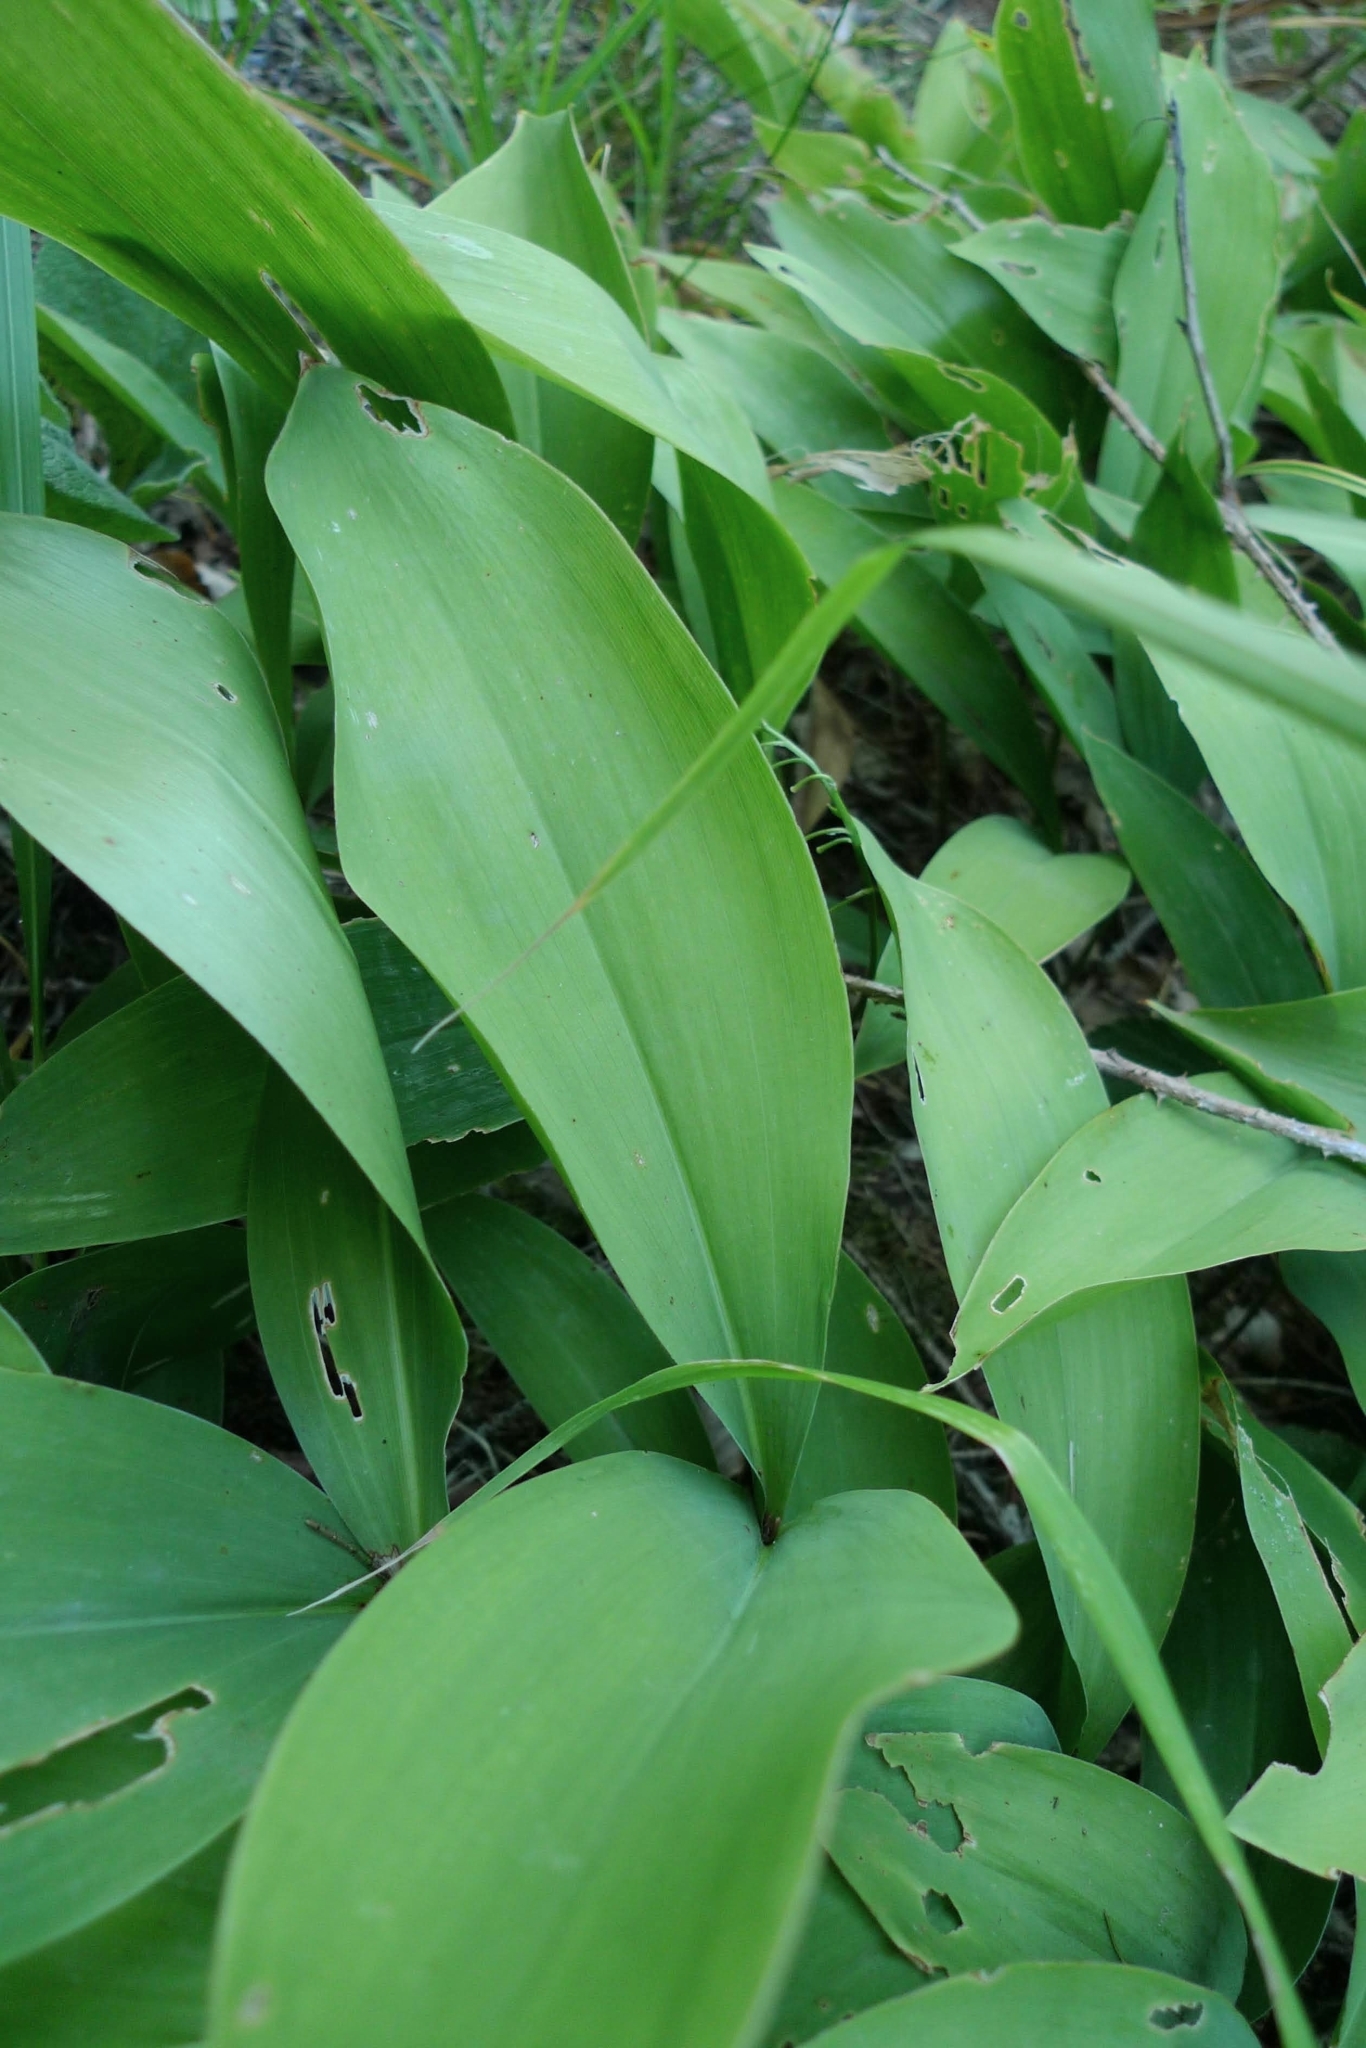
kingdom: Plantae
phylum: Tracheophyta
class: Liliopsida
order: Asparagales
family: Asparagaceae
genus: Convallaria
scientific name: Convallaria majalis
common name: Lily-of-the-valley
